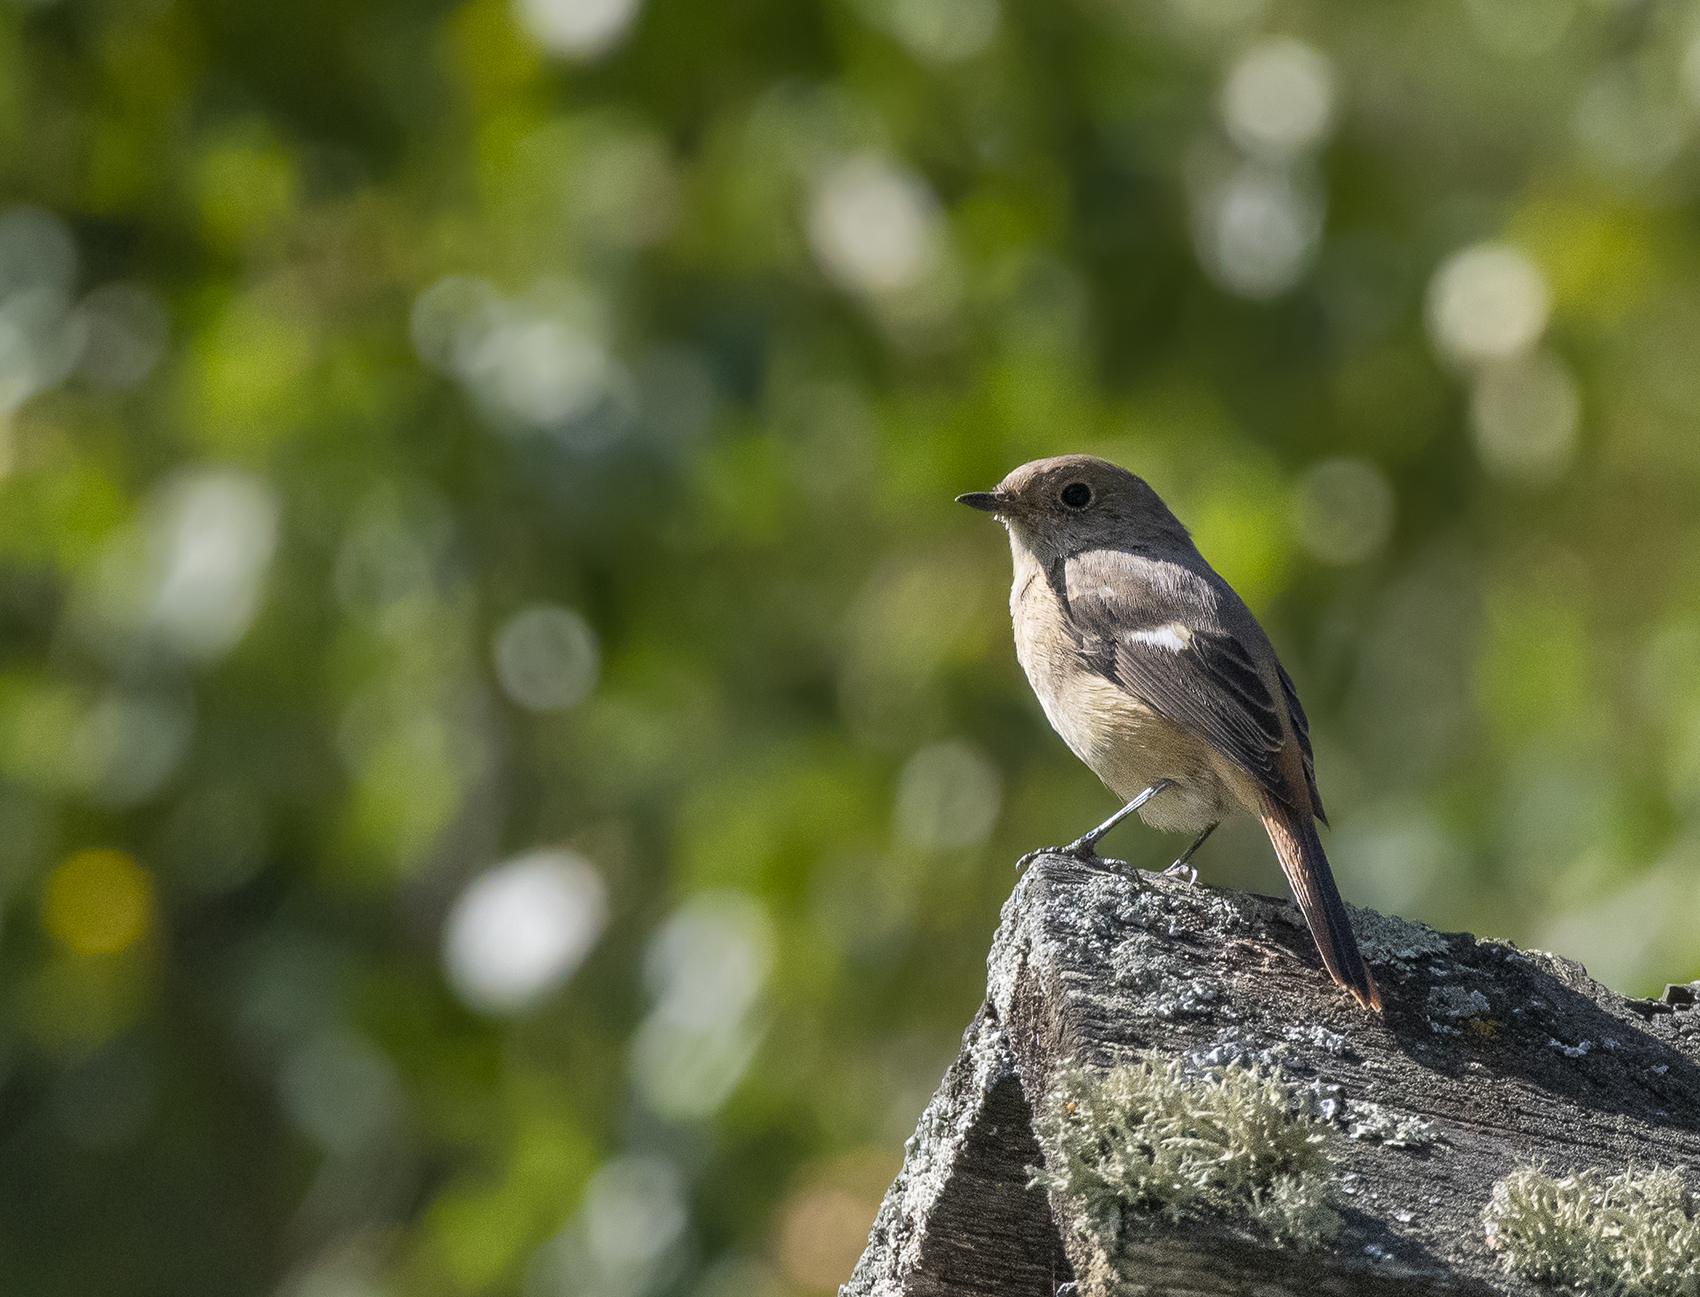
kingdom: Animalia
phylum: Chordata
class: Aves
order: Passeriformes
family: Muscicapidae
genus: Phoenicurus
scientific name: Phoenicurus auroreus
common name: Daurian redstart
